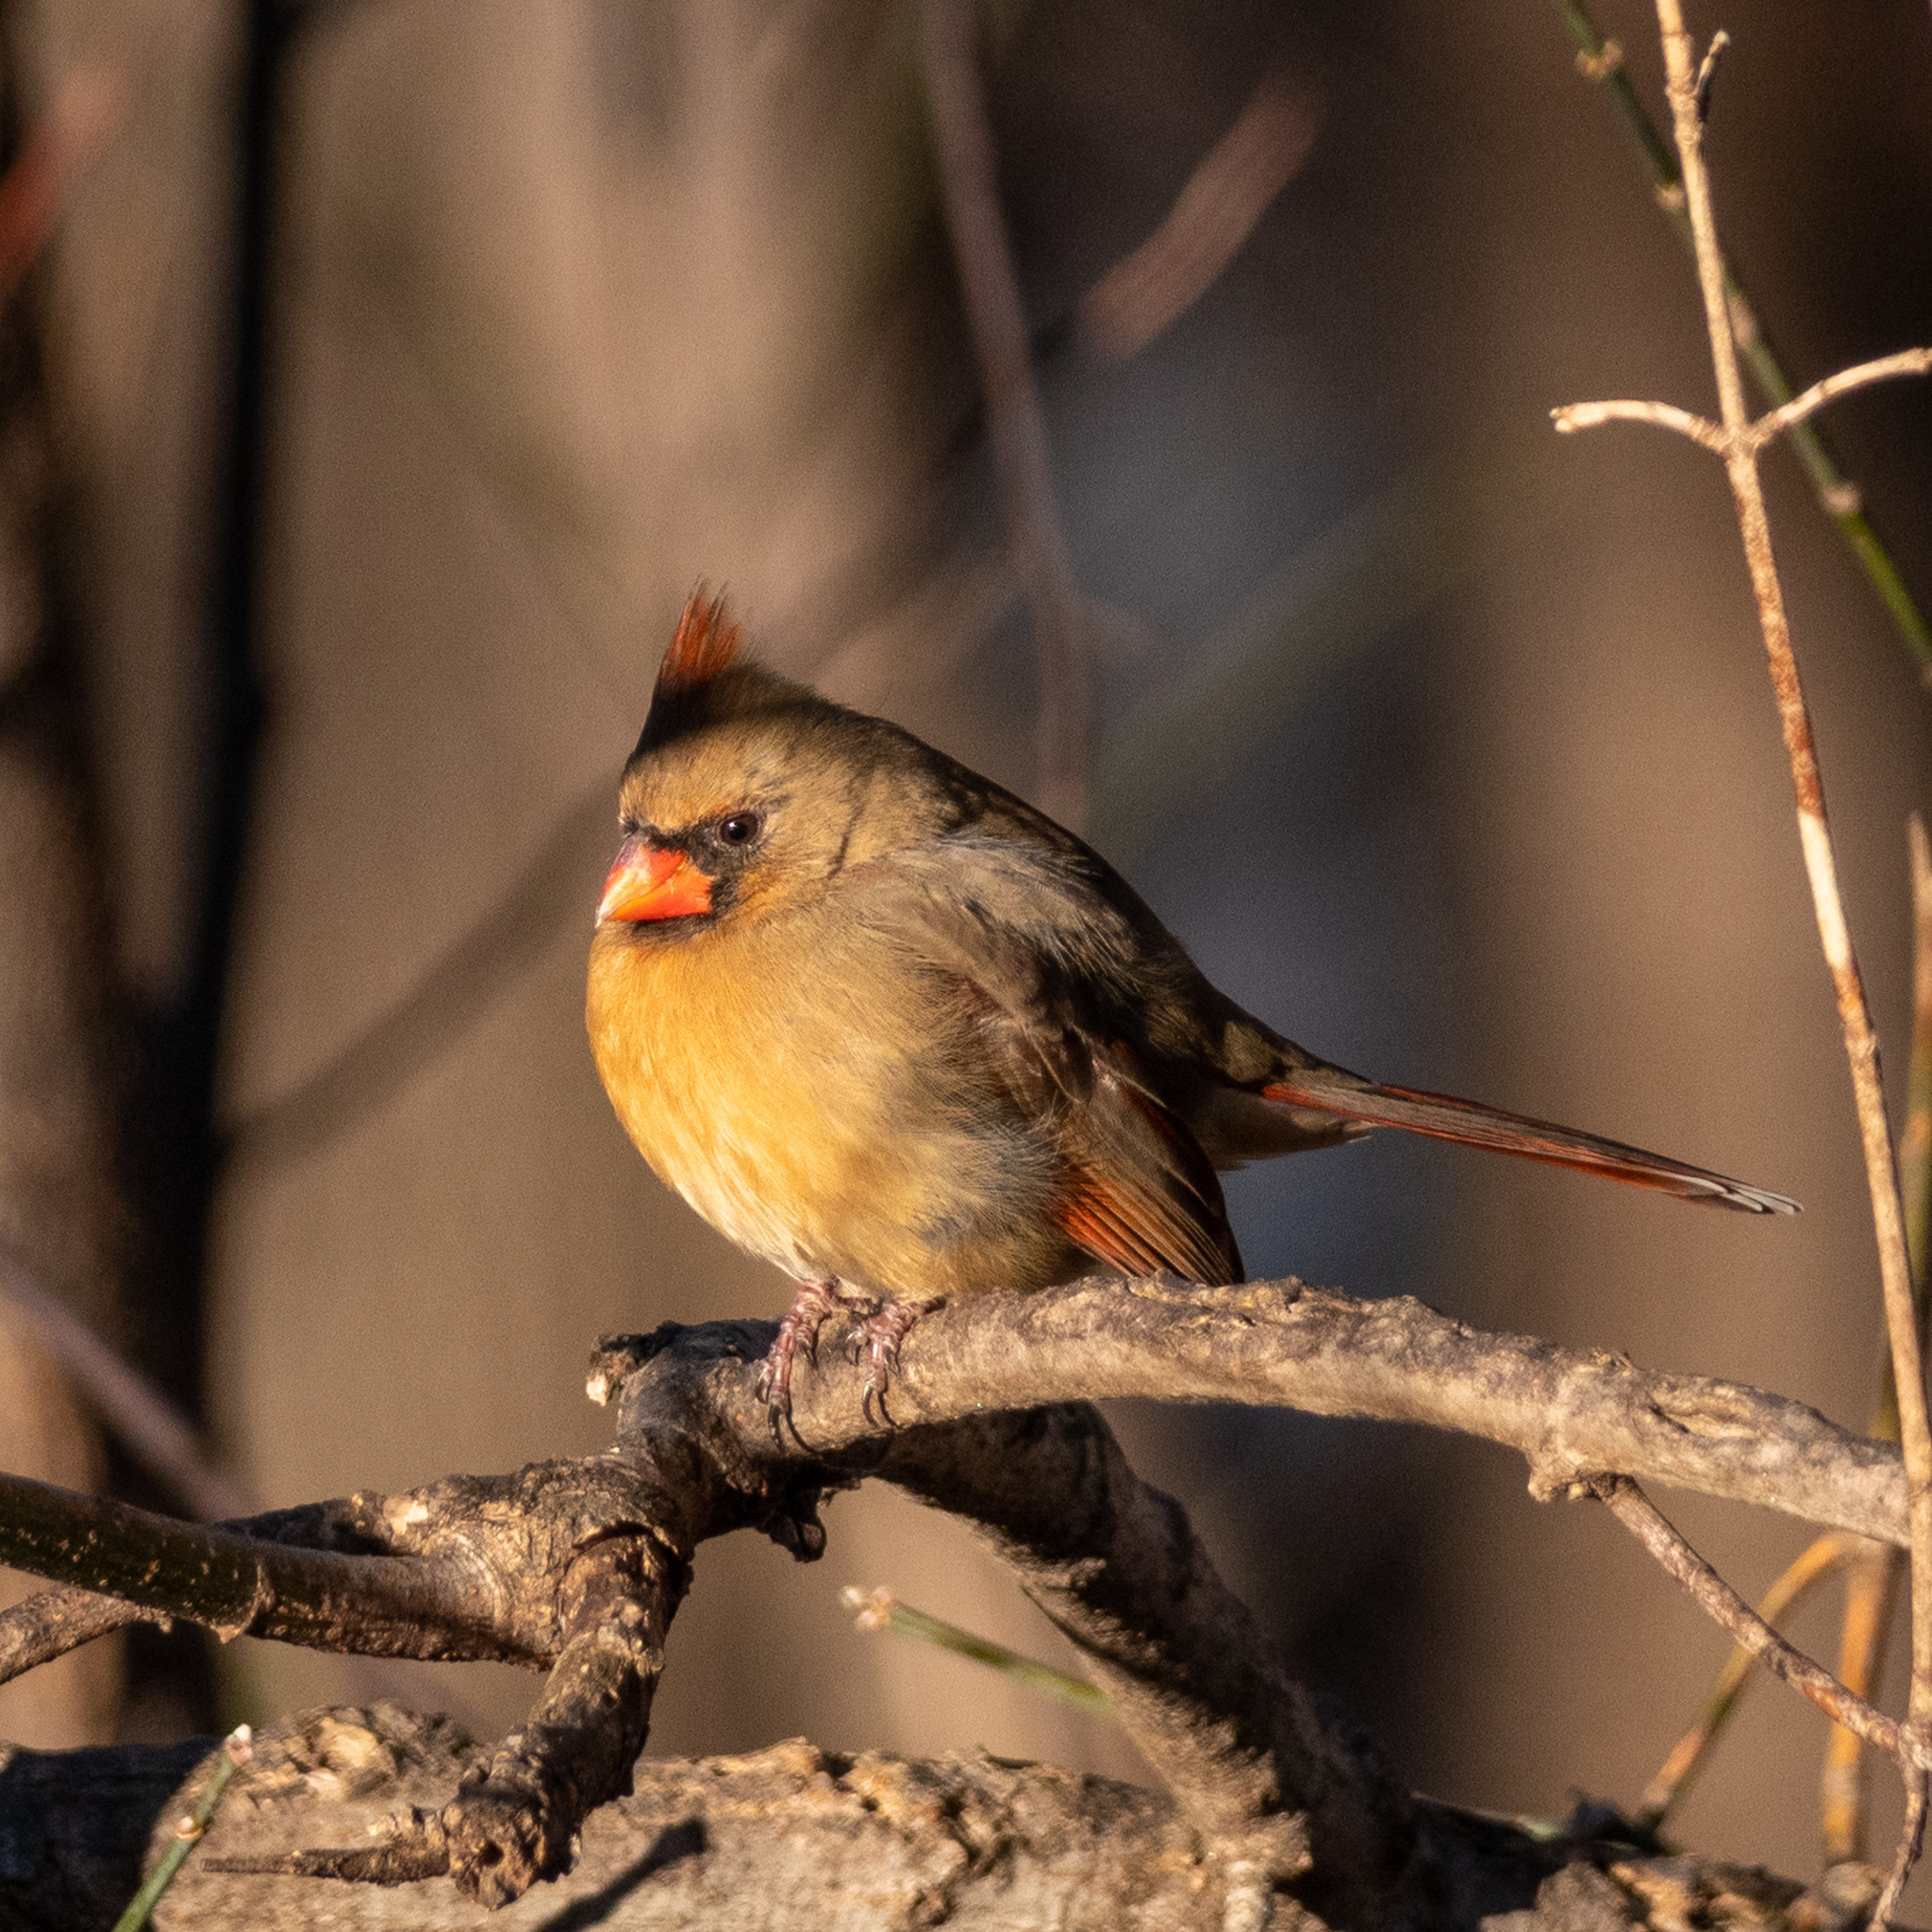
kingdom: Animalia
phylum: Chordata
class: Aves
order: Passeriformes
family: Cardinalidae
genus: Cardinalis
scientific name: Cardinalis cardinalis
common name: Northern cardinal
